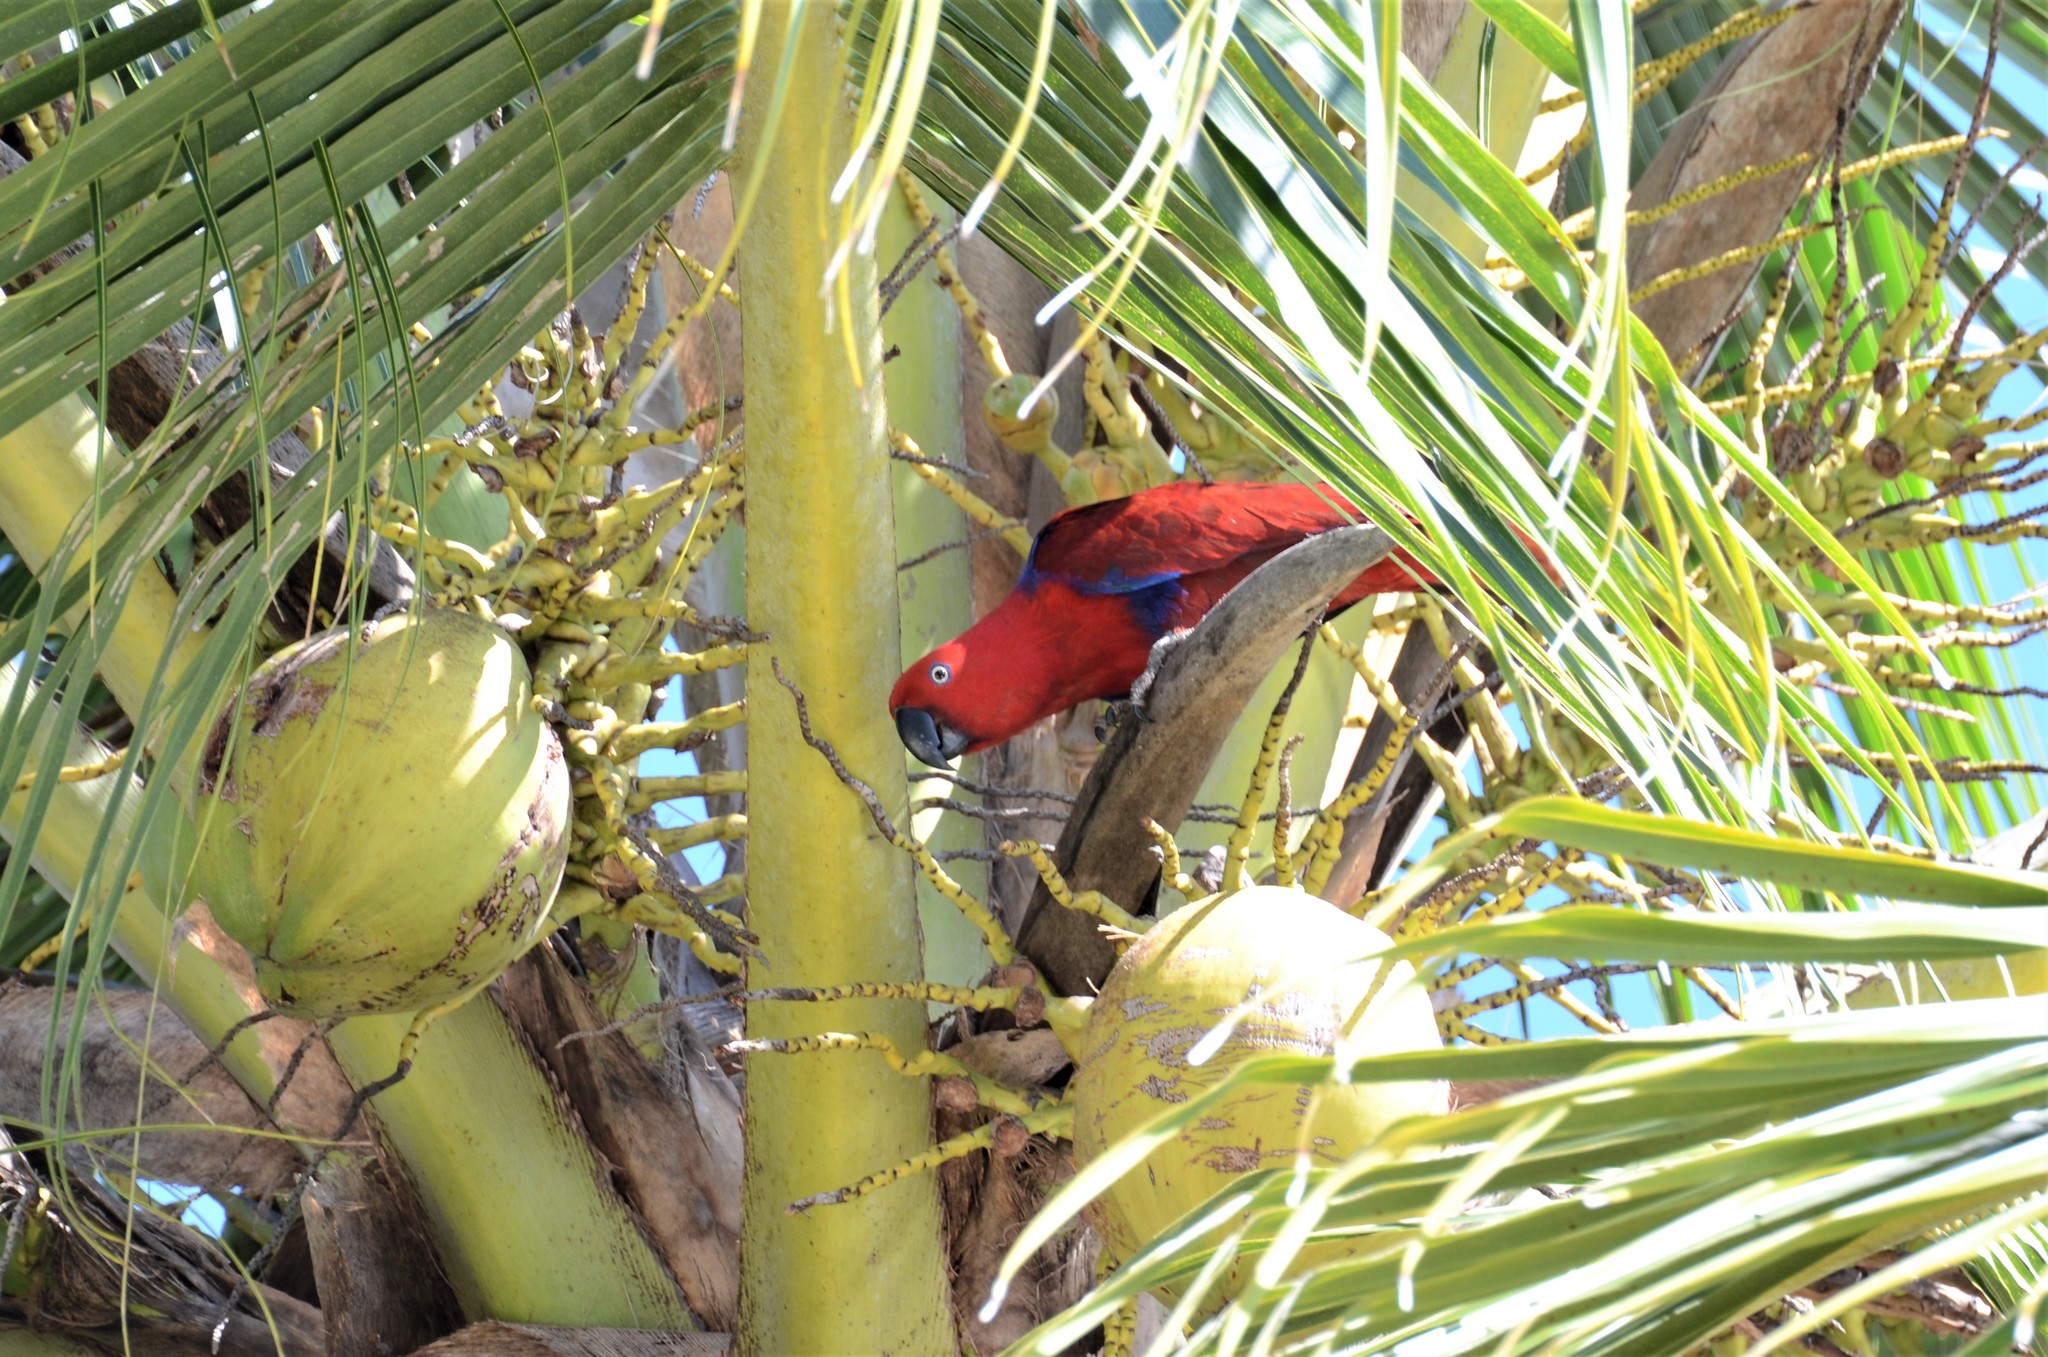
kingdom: Animalia
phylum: Chordata
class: Aves
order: Psittaciformes
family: Psittacidae
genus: Eclectus
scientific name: Eclectus roratus
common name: Eclectus parrot
